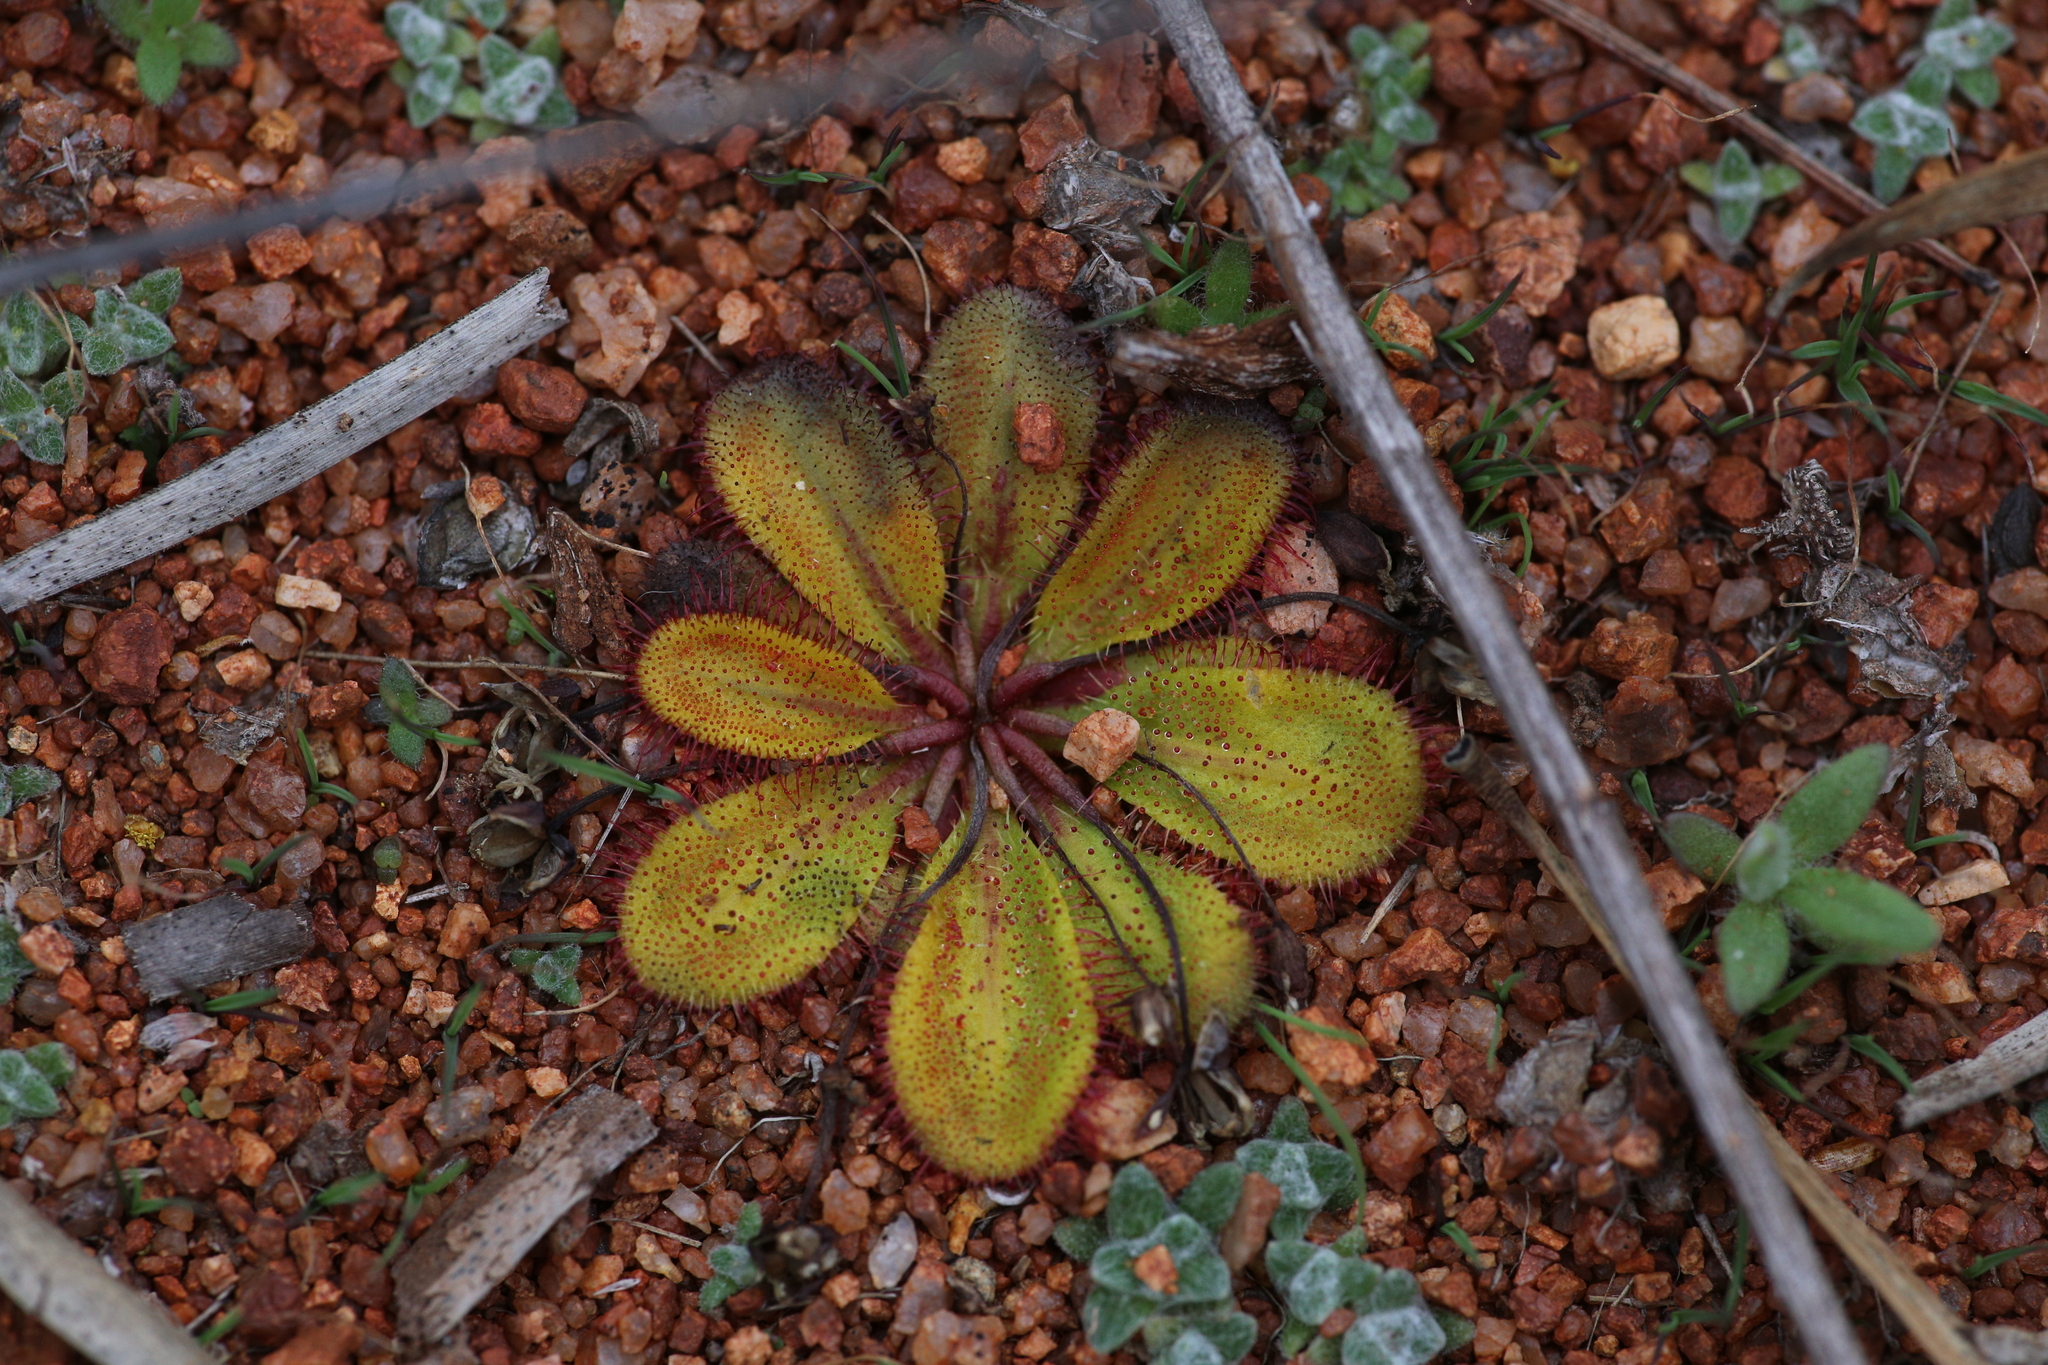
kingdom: Plantae
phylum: Tracheophyta
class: Magnoliopsida
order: Caryophyllales
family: Droseraceae
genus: Drosera
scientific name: Drosera bulbosa
